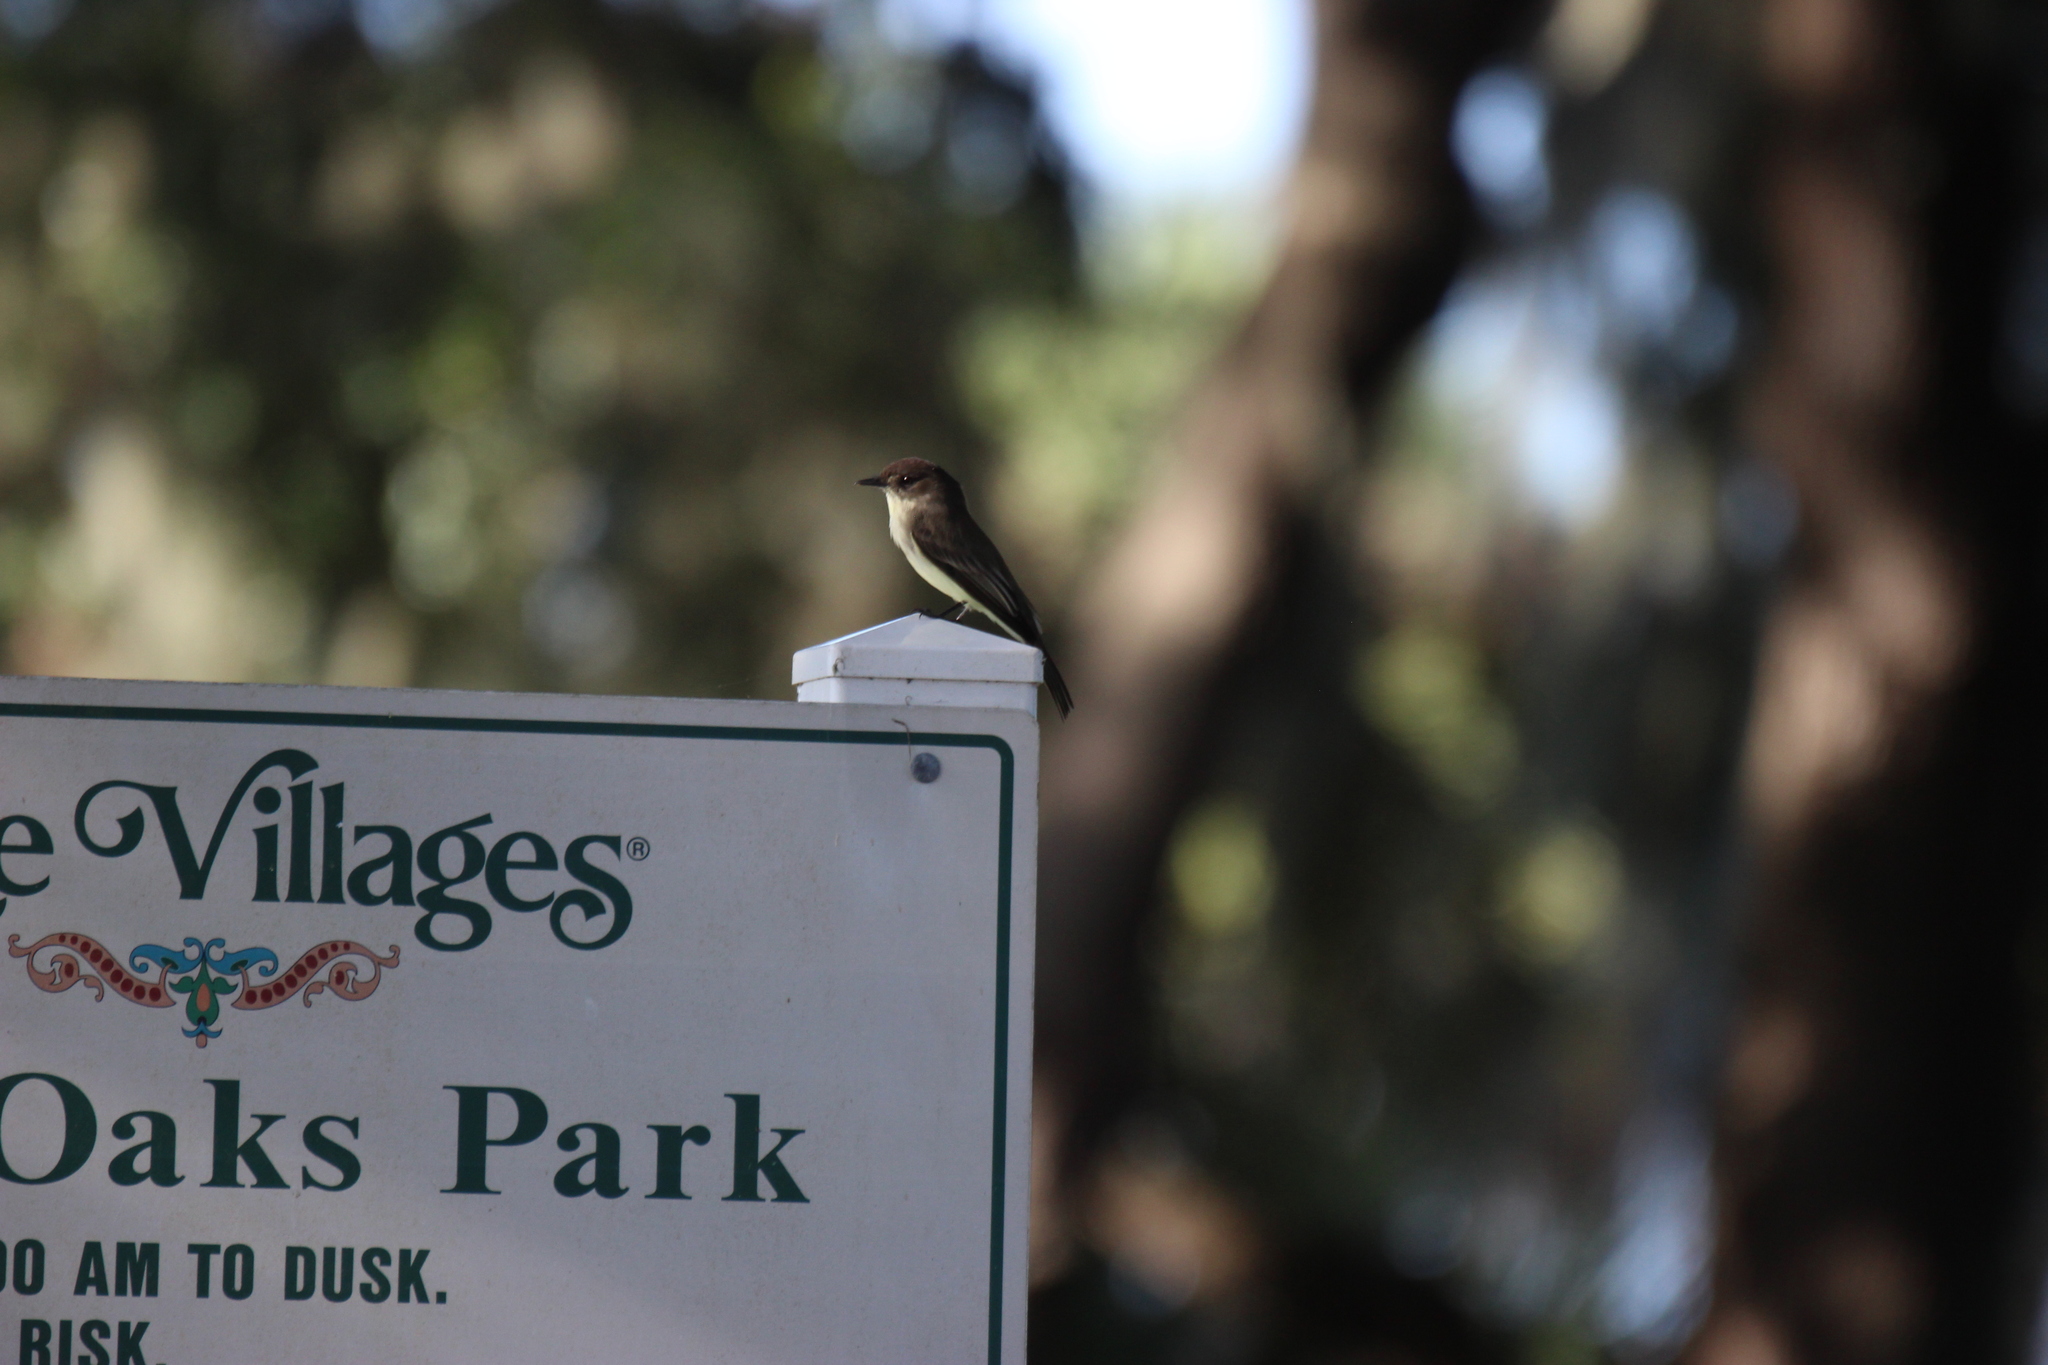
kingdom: Animalia
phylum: Chordata
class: Aves
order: Passeriformes
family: Tyrannidae
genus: Sayornis
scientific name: Sayornis phoebe
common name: Eastern phoebe
